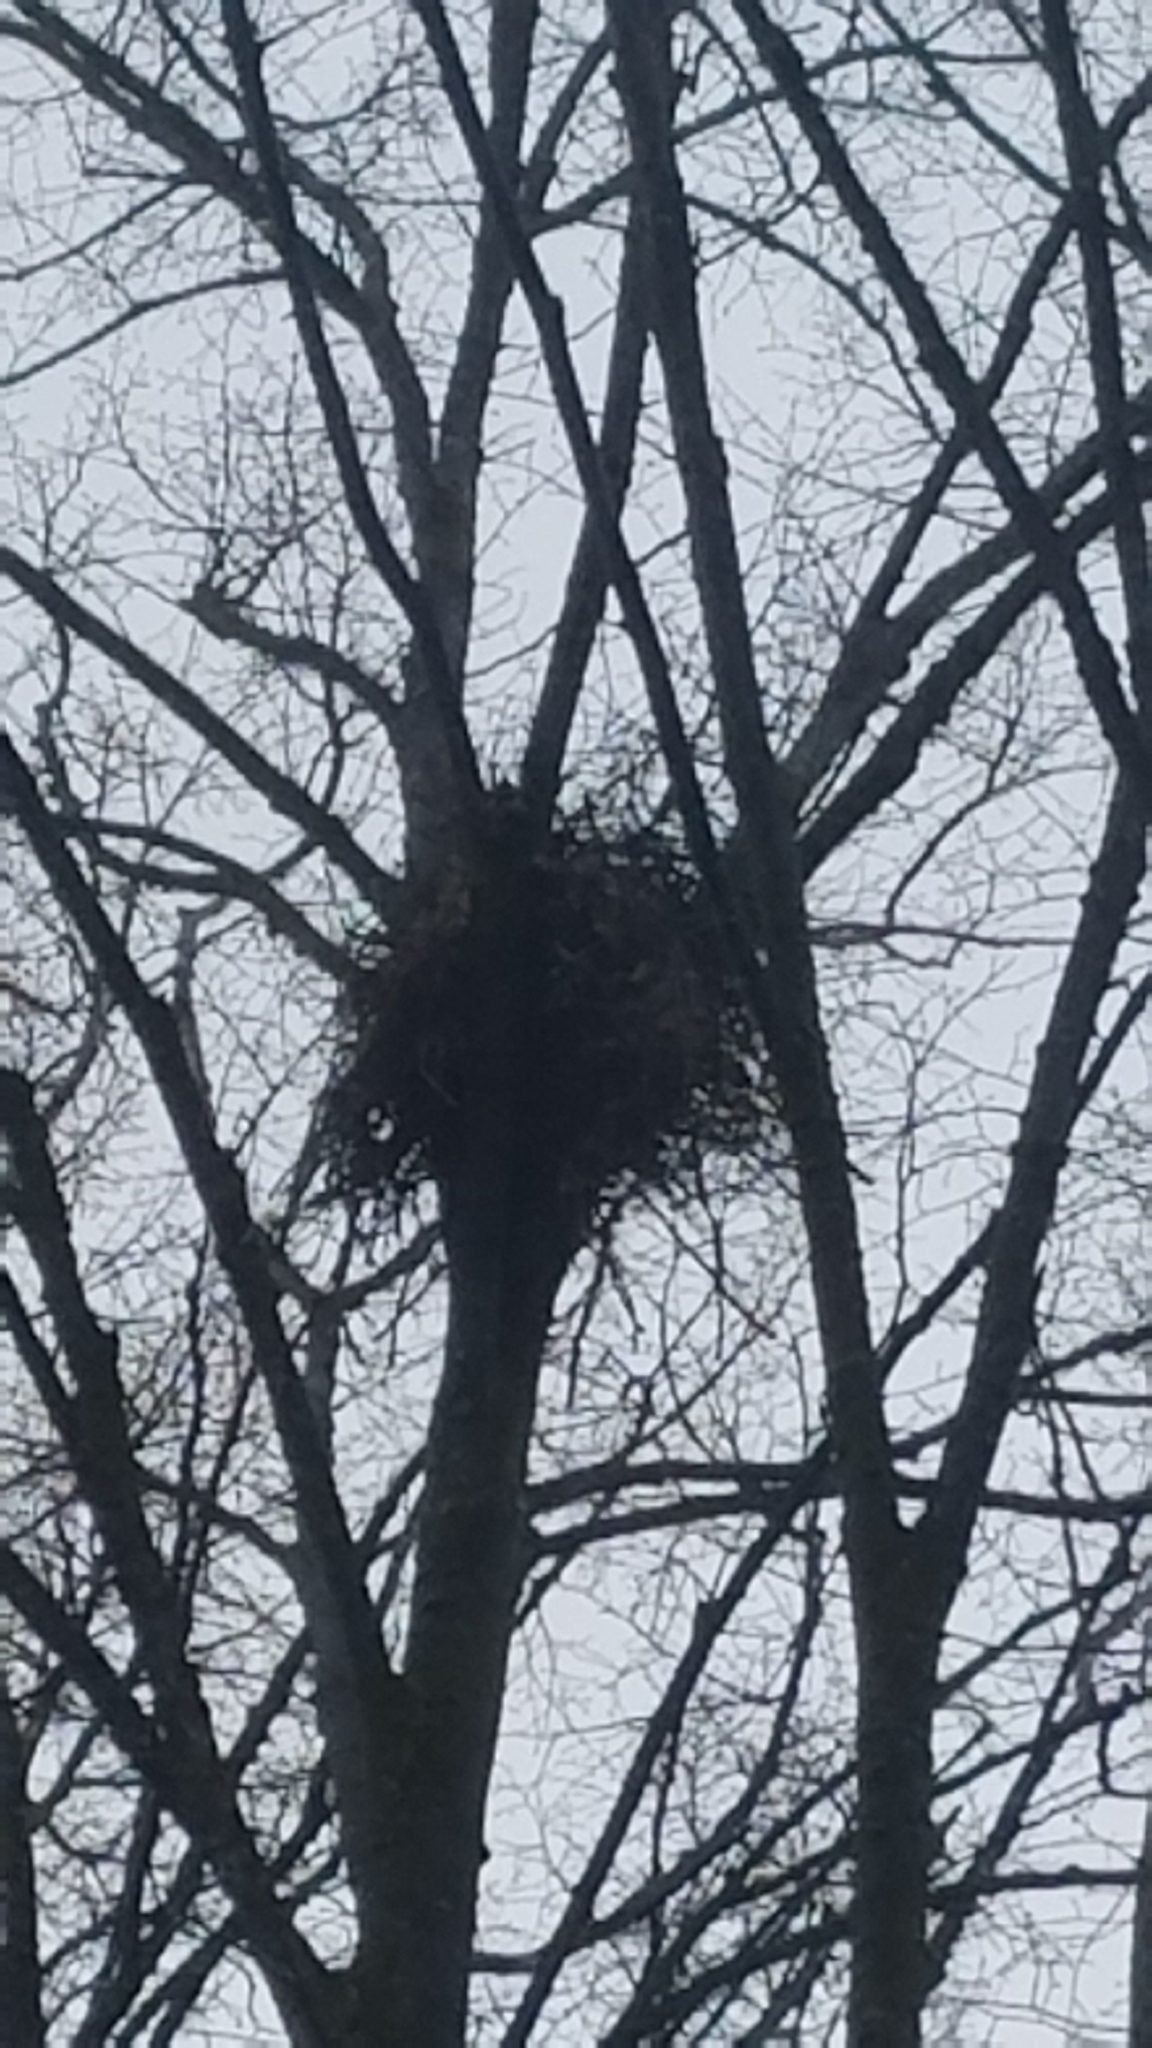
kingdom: Animalia
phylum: Chordata
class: Aves
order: Accipitriformes
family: Accipitridae
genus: Accipiter
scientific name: Accipiter cooperii
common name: Cooper's hawk
